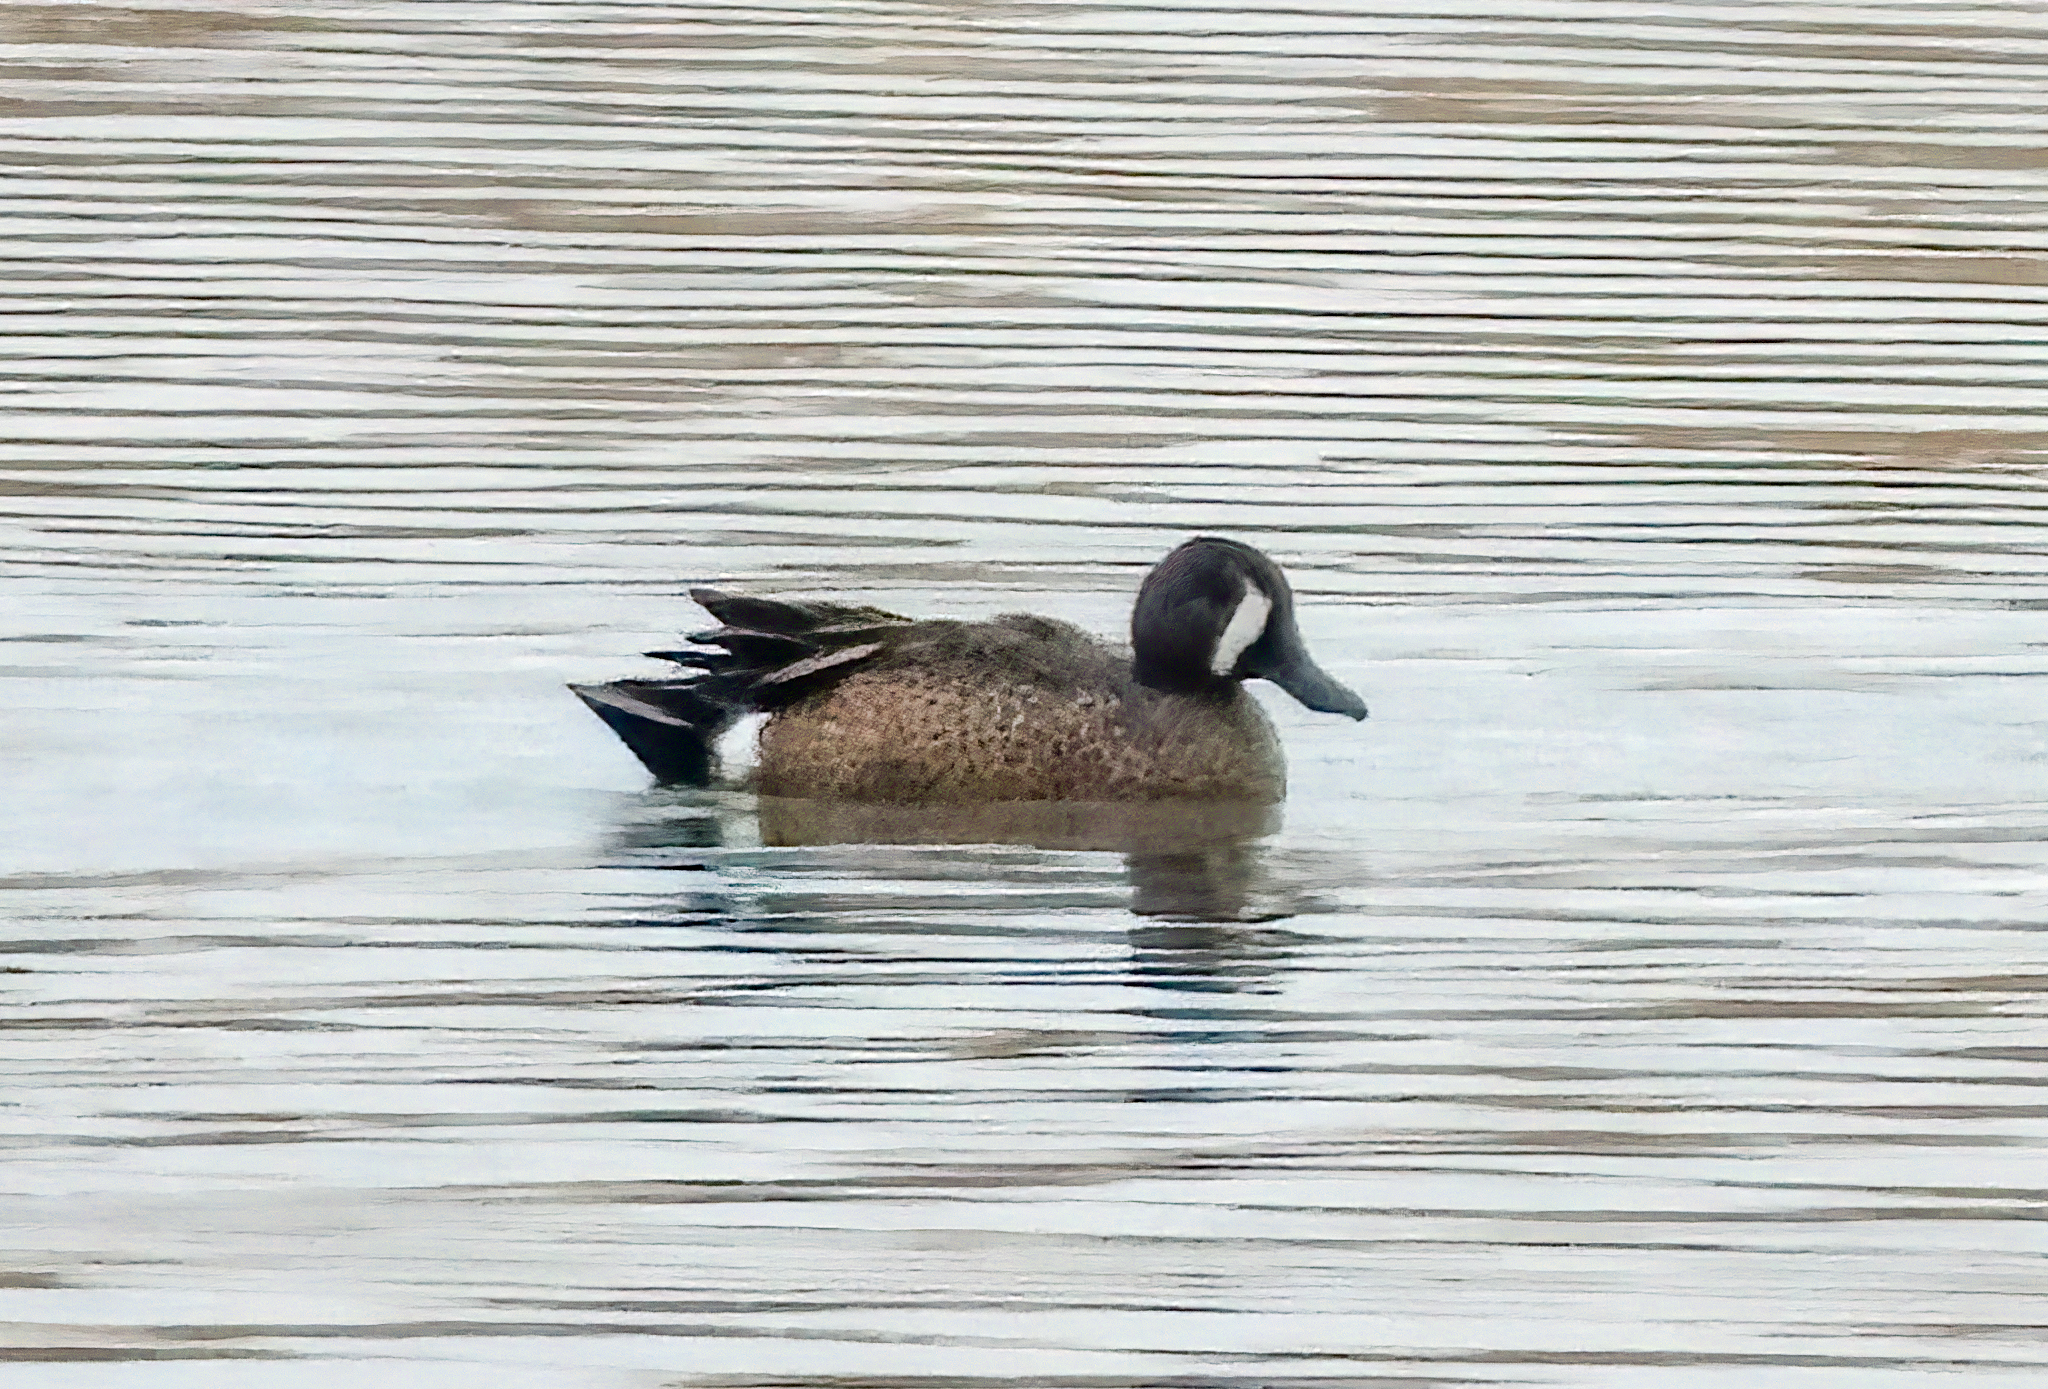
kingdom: Animalia
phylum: Chordata
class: Aves
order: Anseriformes
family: Anatidae
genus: Spatula
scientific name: Spatula discors
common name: Blue-winged teal
